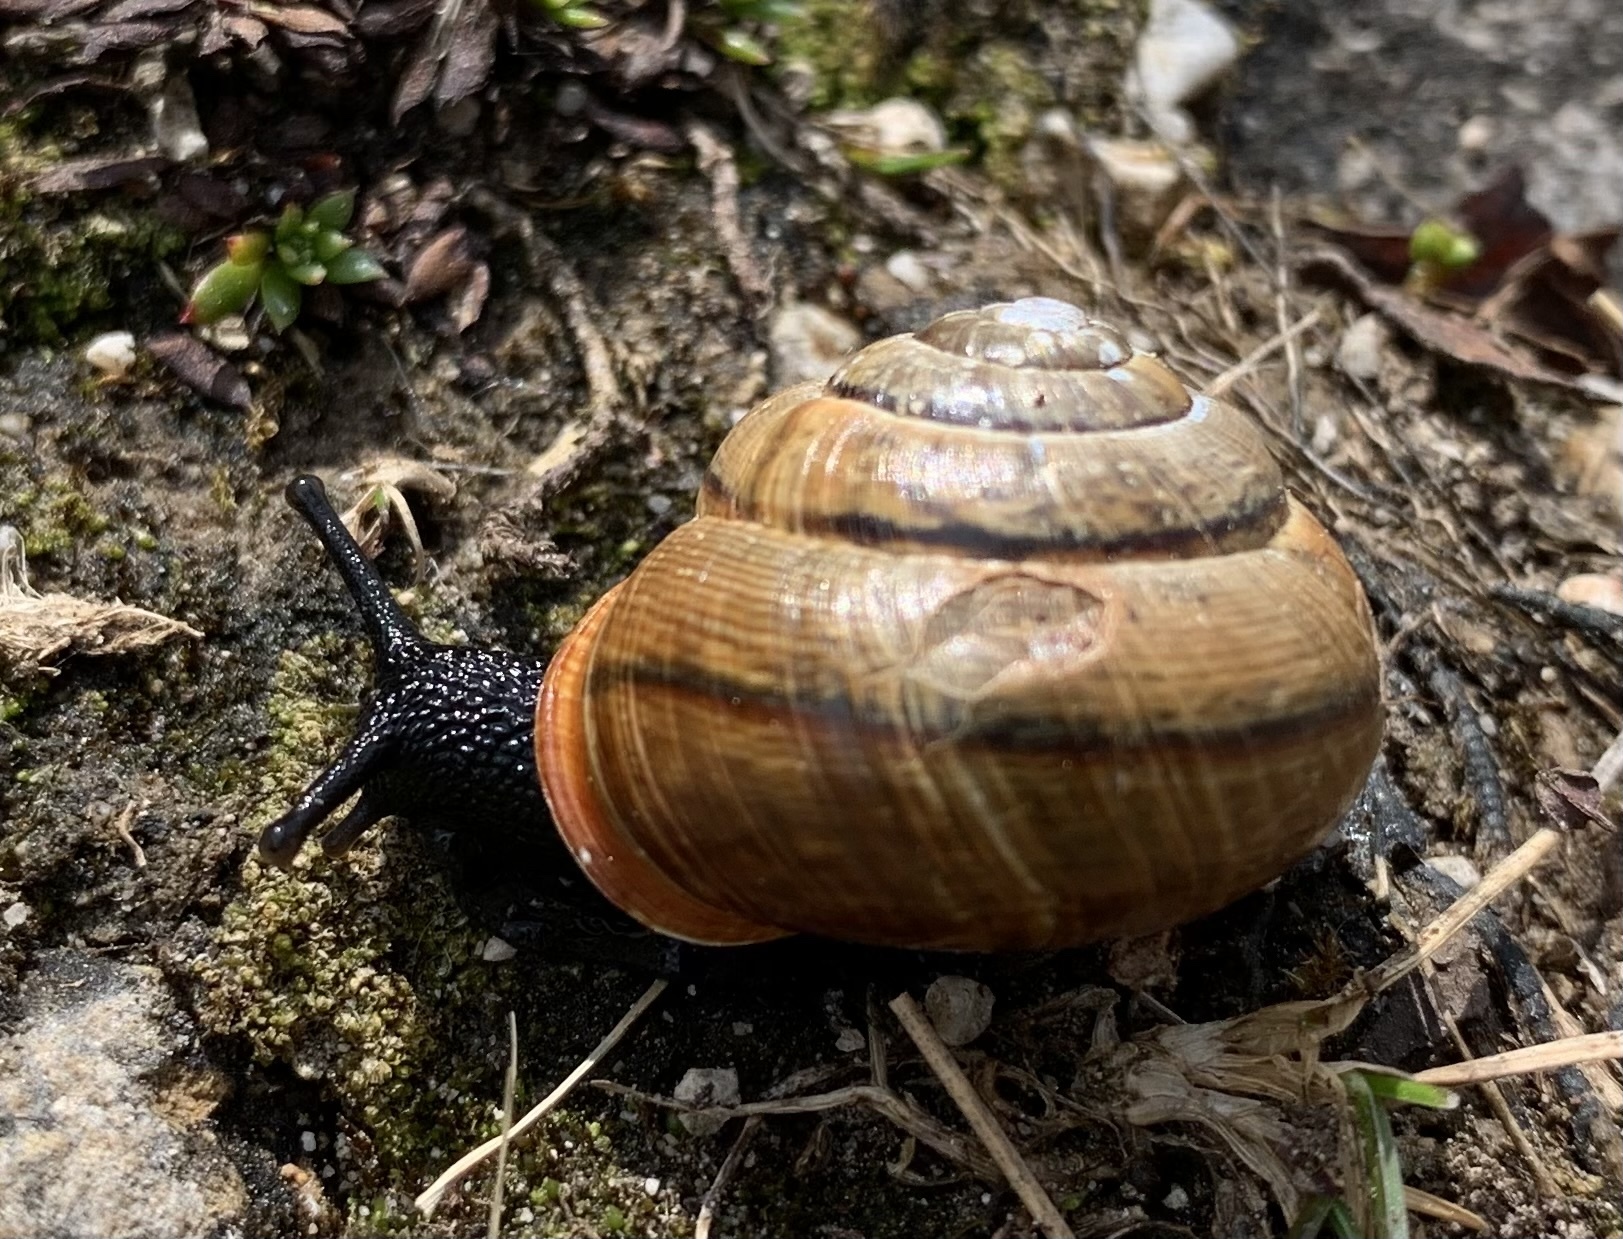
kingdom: Animalia
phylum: Mollusca
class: Gastropoda
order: Stylommatophora
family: Helicidae
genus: Arianta
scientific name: Arianta arbustorum
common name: Copse snail
